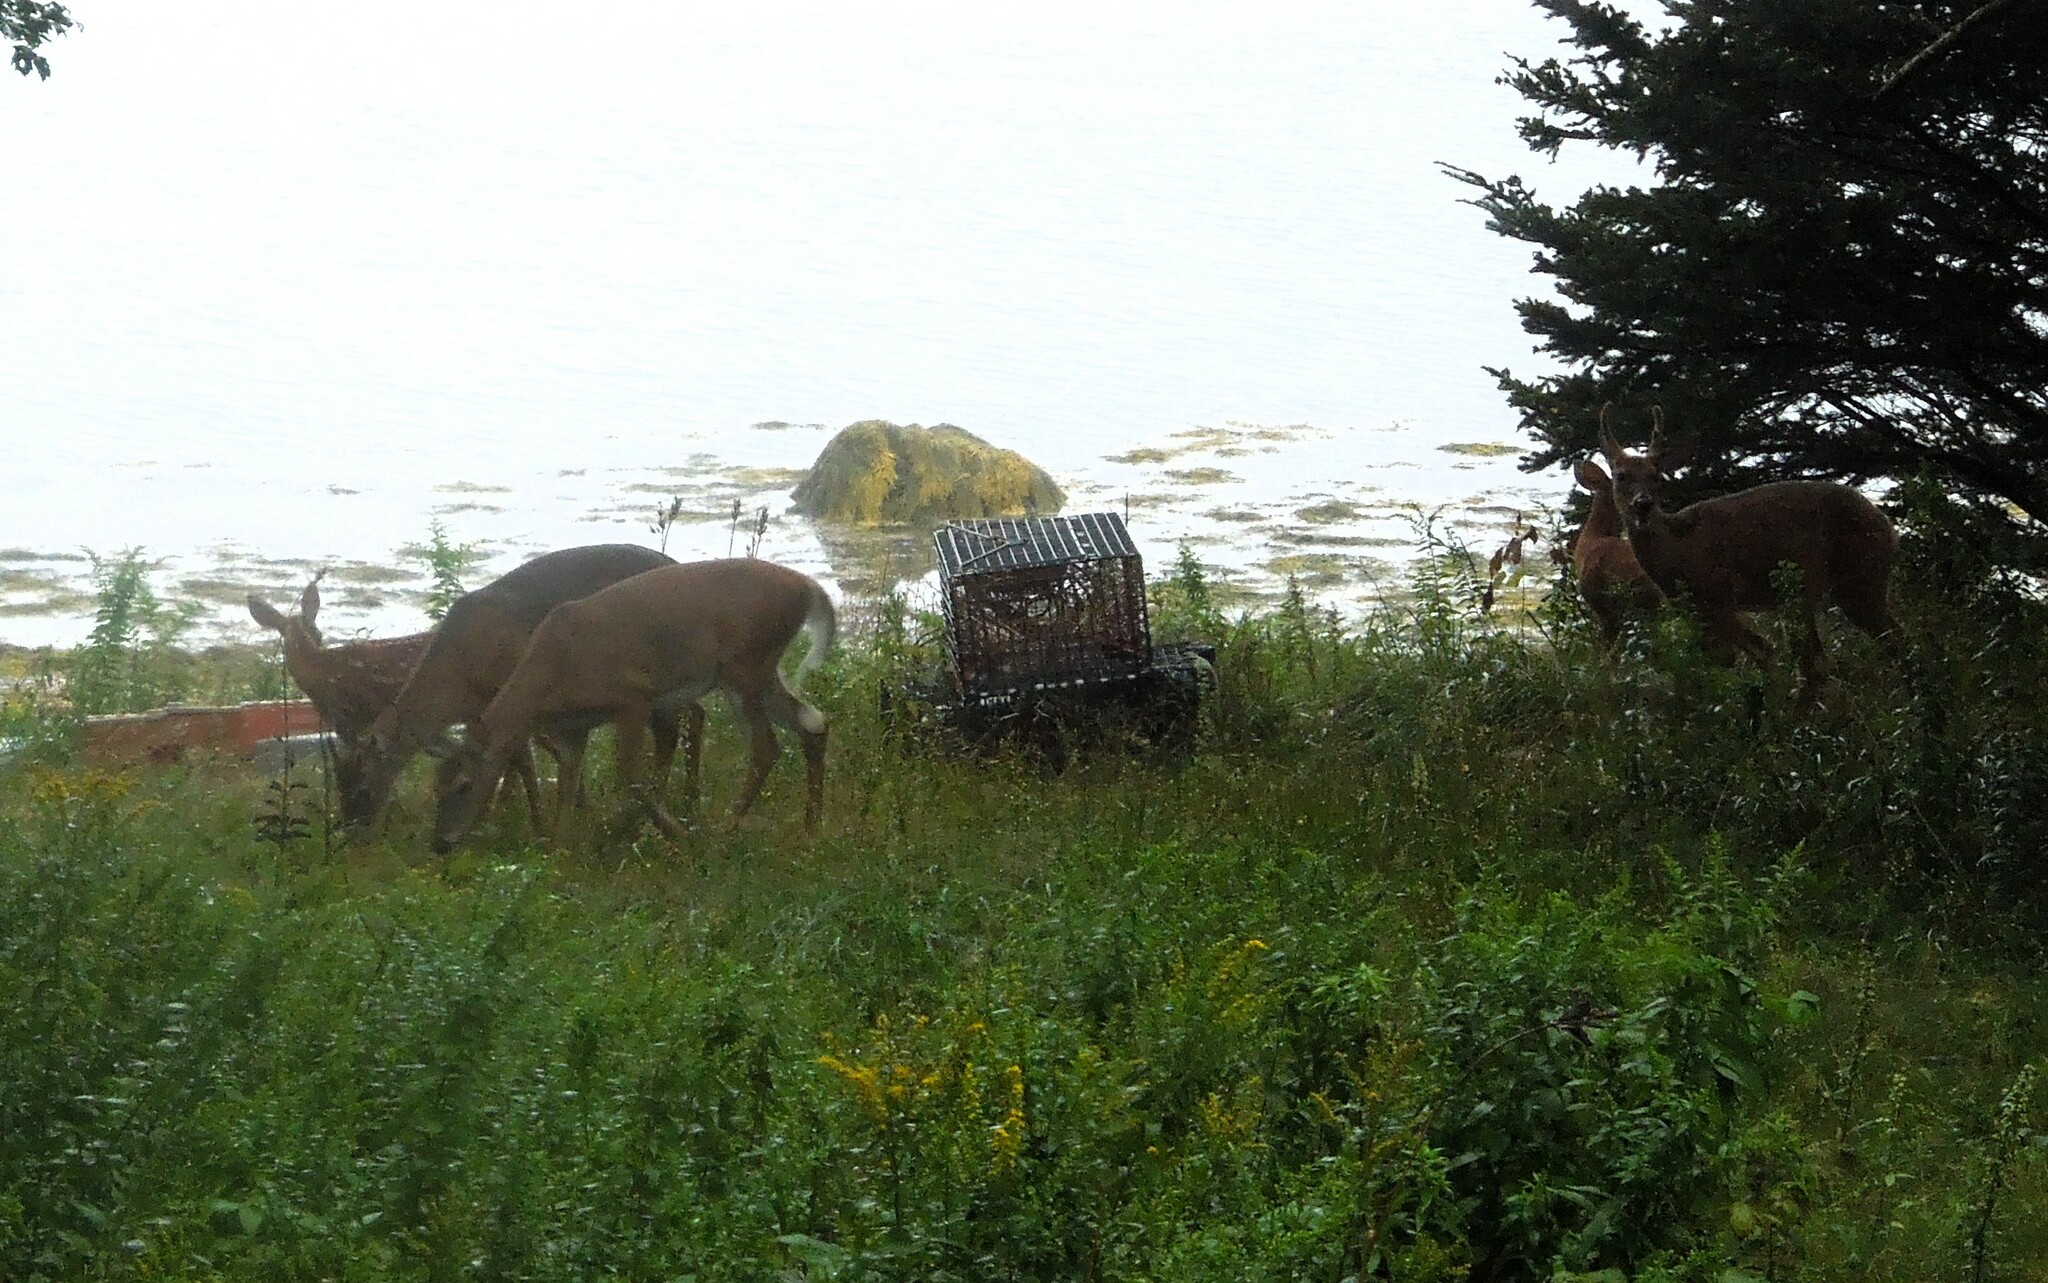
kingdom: Animalia
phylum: Chordata
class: Mammalia
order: Artiodactyla
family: Cervidae
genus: Odocoileus
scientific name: Odocoileus virginianus
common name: White-tailed deer
